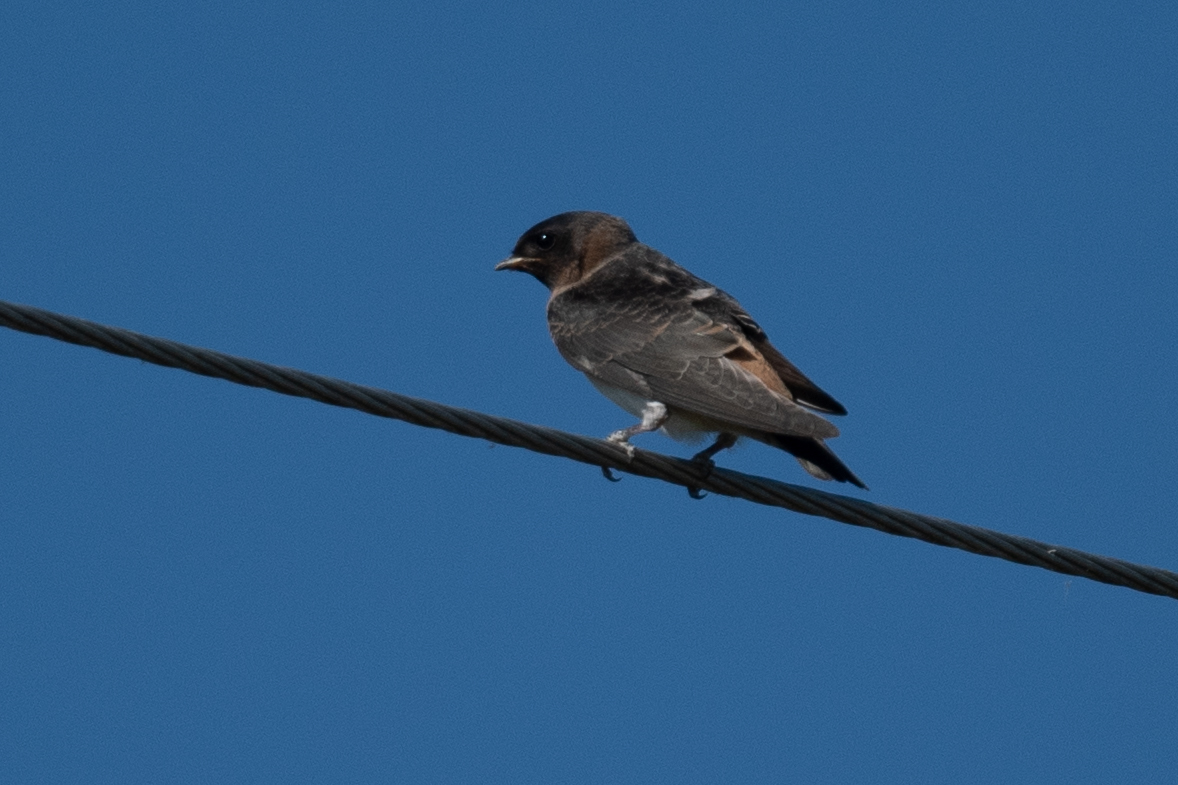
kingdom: Animalia
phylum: Chordata
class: Aves
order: Passeriformes
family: Hirundinidae
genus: Petrochelidon
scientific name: Petrochelidon pyrrhonota
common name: American cliff swallow
